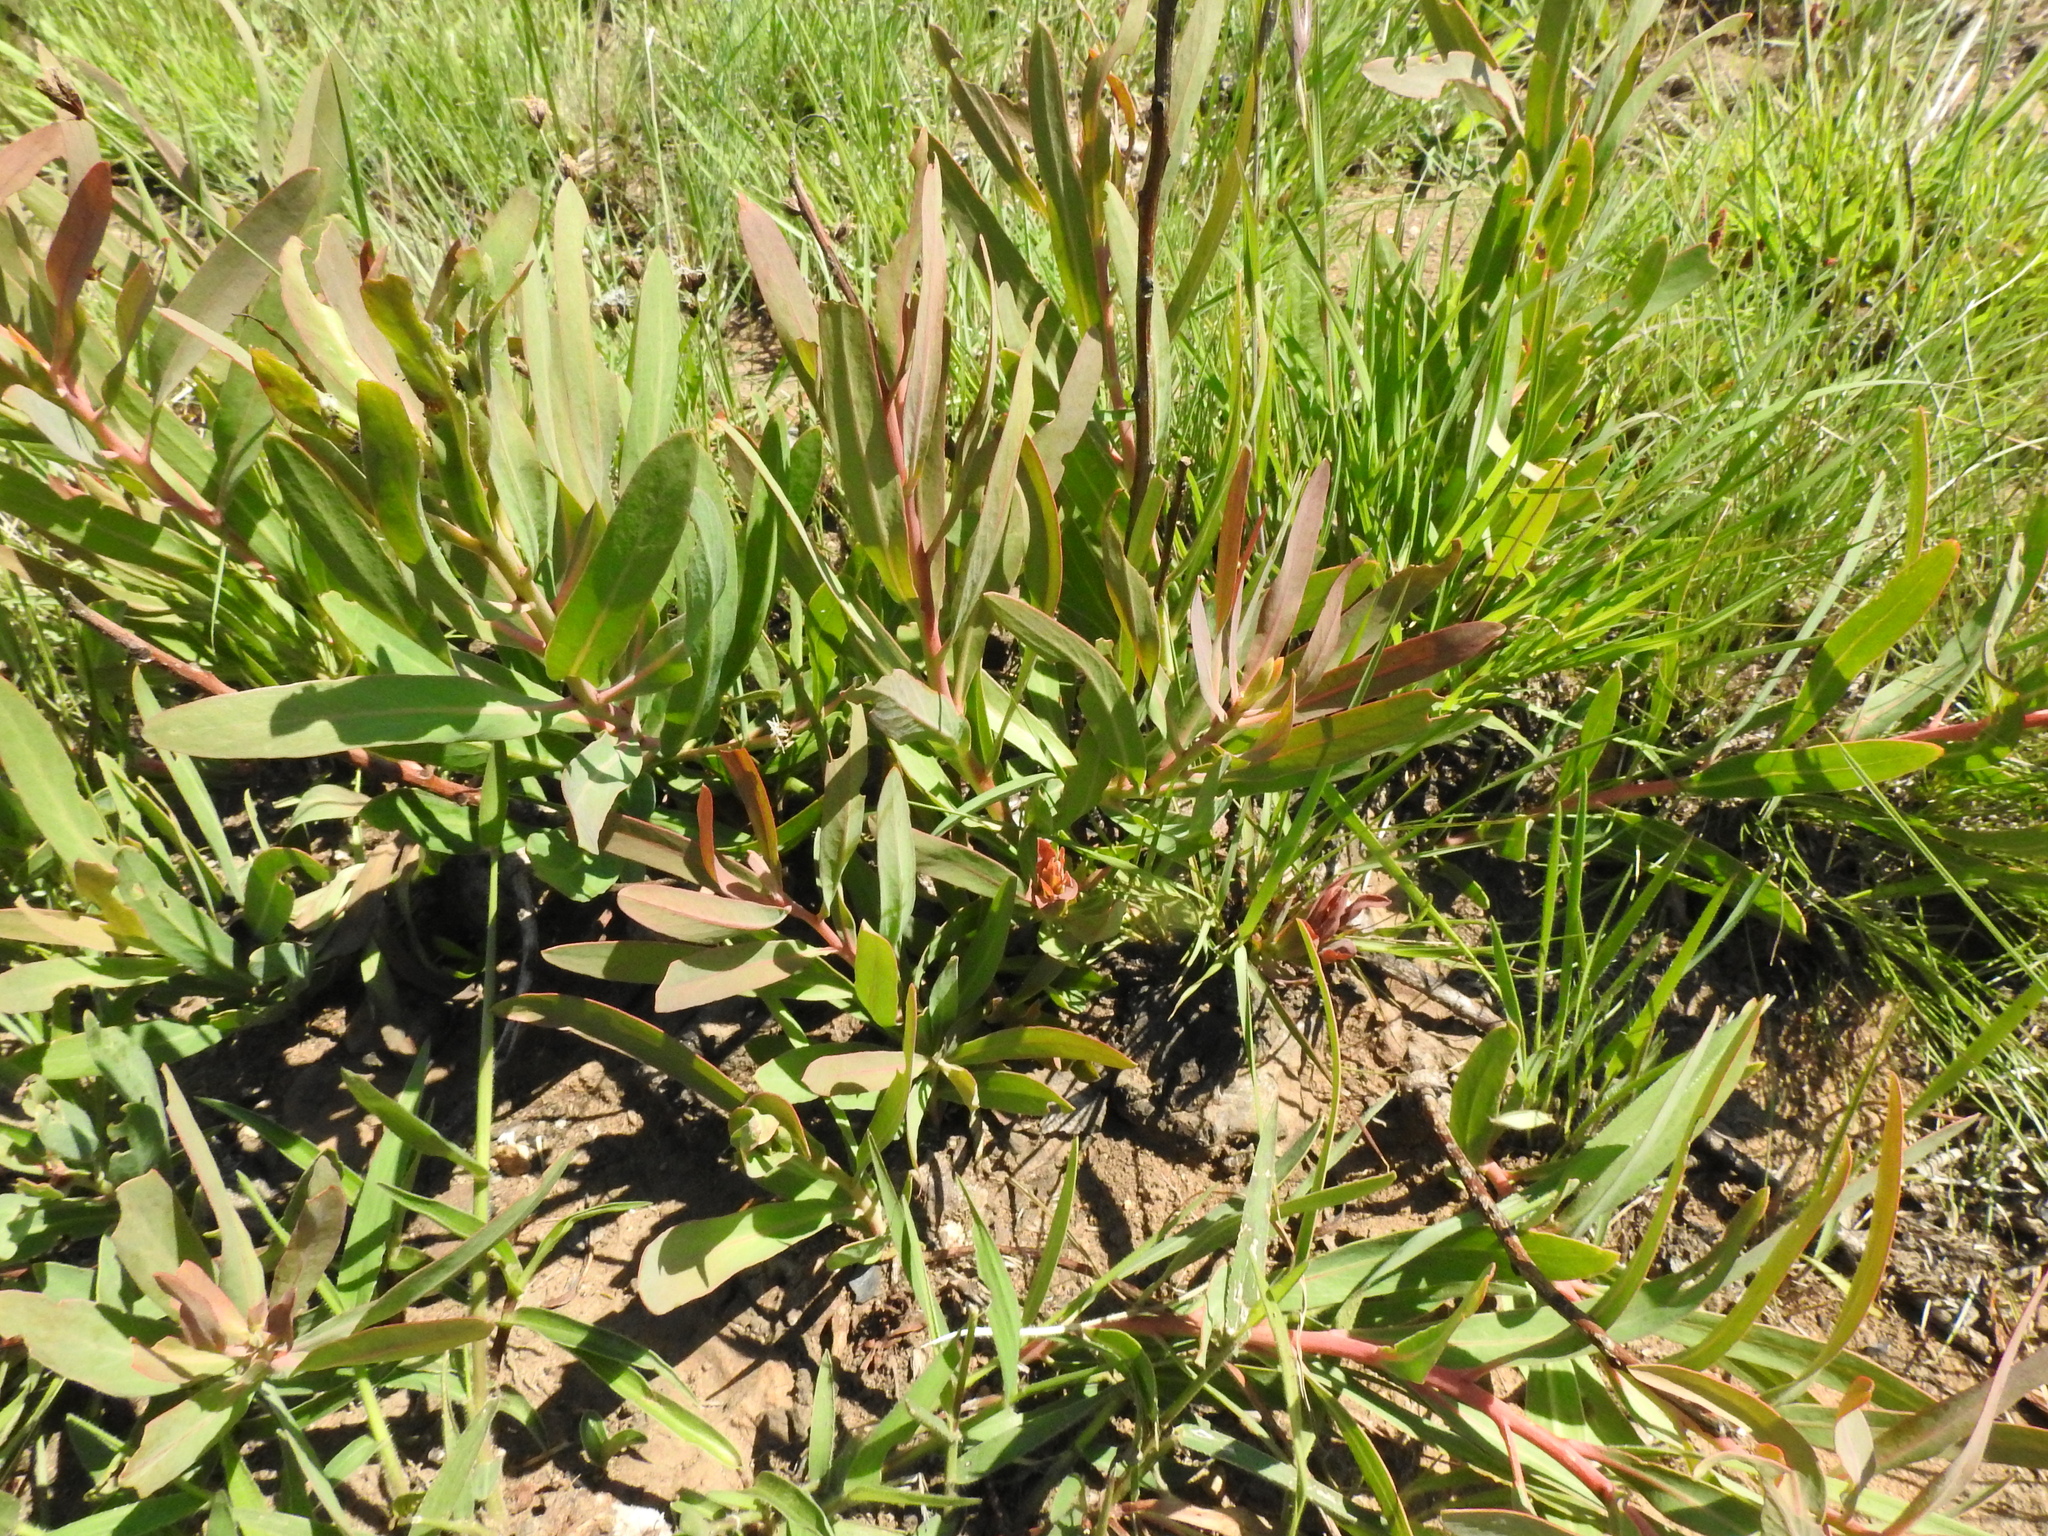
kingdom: Plantae
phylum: Tracheophyta
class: Magnoliopsida
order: Proteales
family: Proteaceae
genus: Protea
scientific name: Protea simplex
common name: Dwarf grassveld sugarbush
